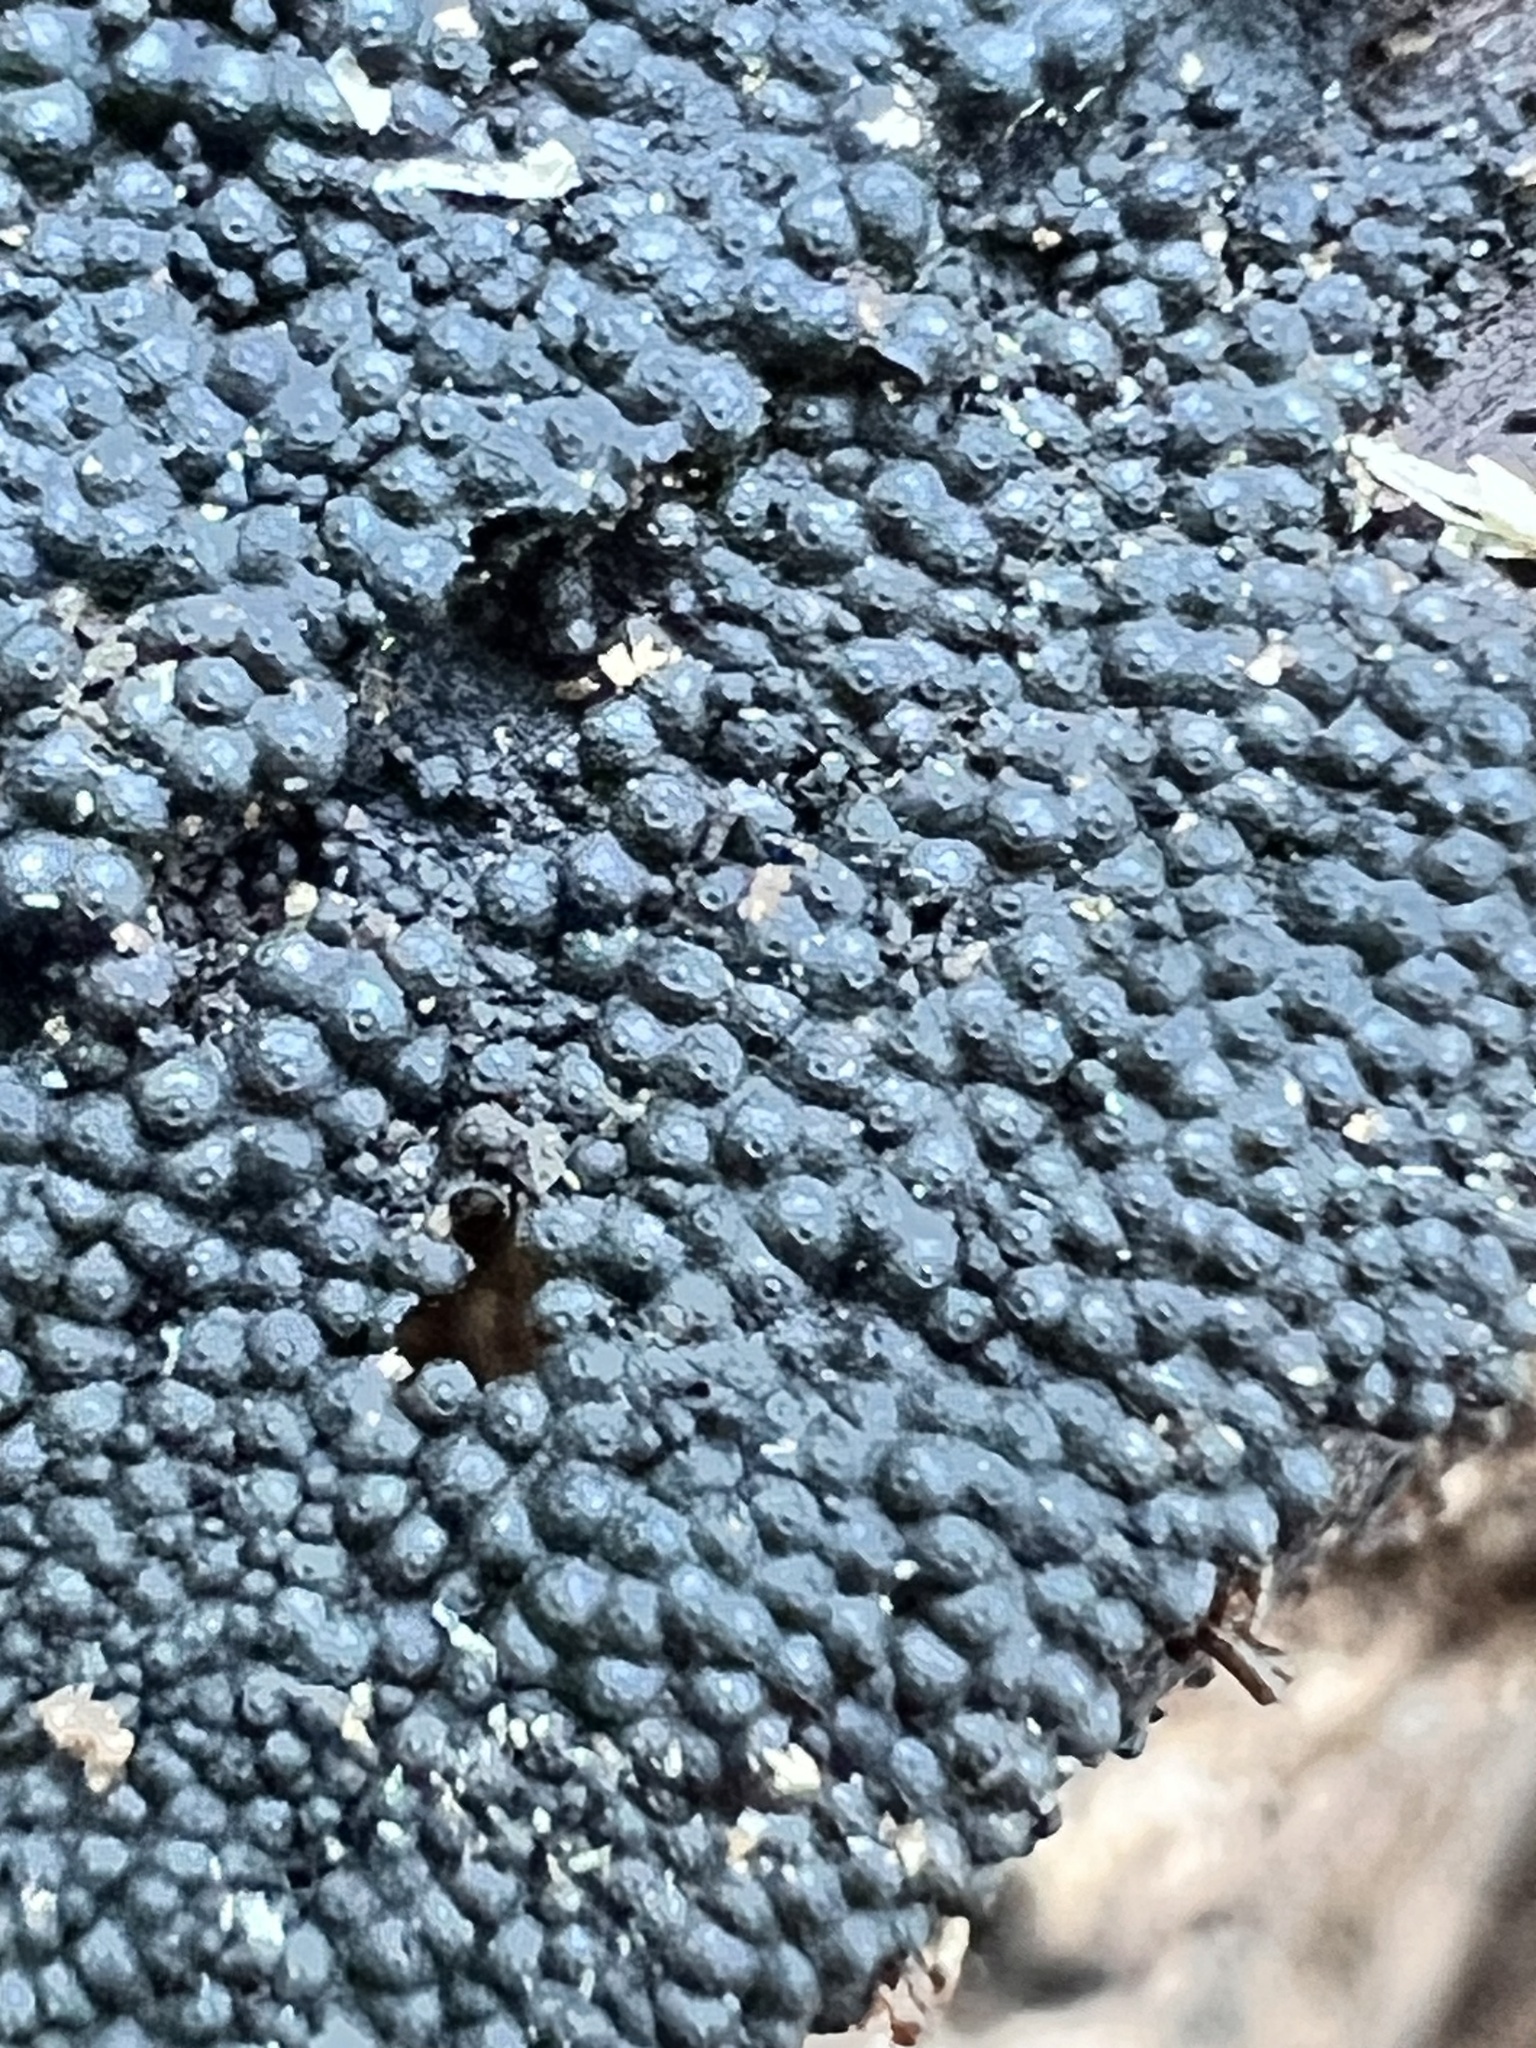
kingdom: Fungi
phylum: Ascomycota
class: Sordariomycetes
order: Xylariales
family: Hypoxylaceae
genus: Annulohypoxylon
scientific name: Annulohypoxylon bovei
